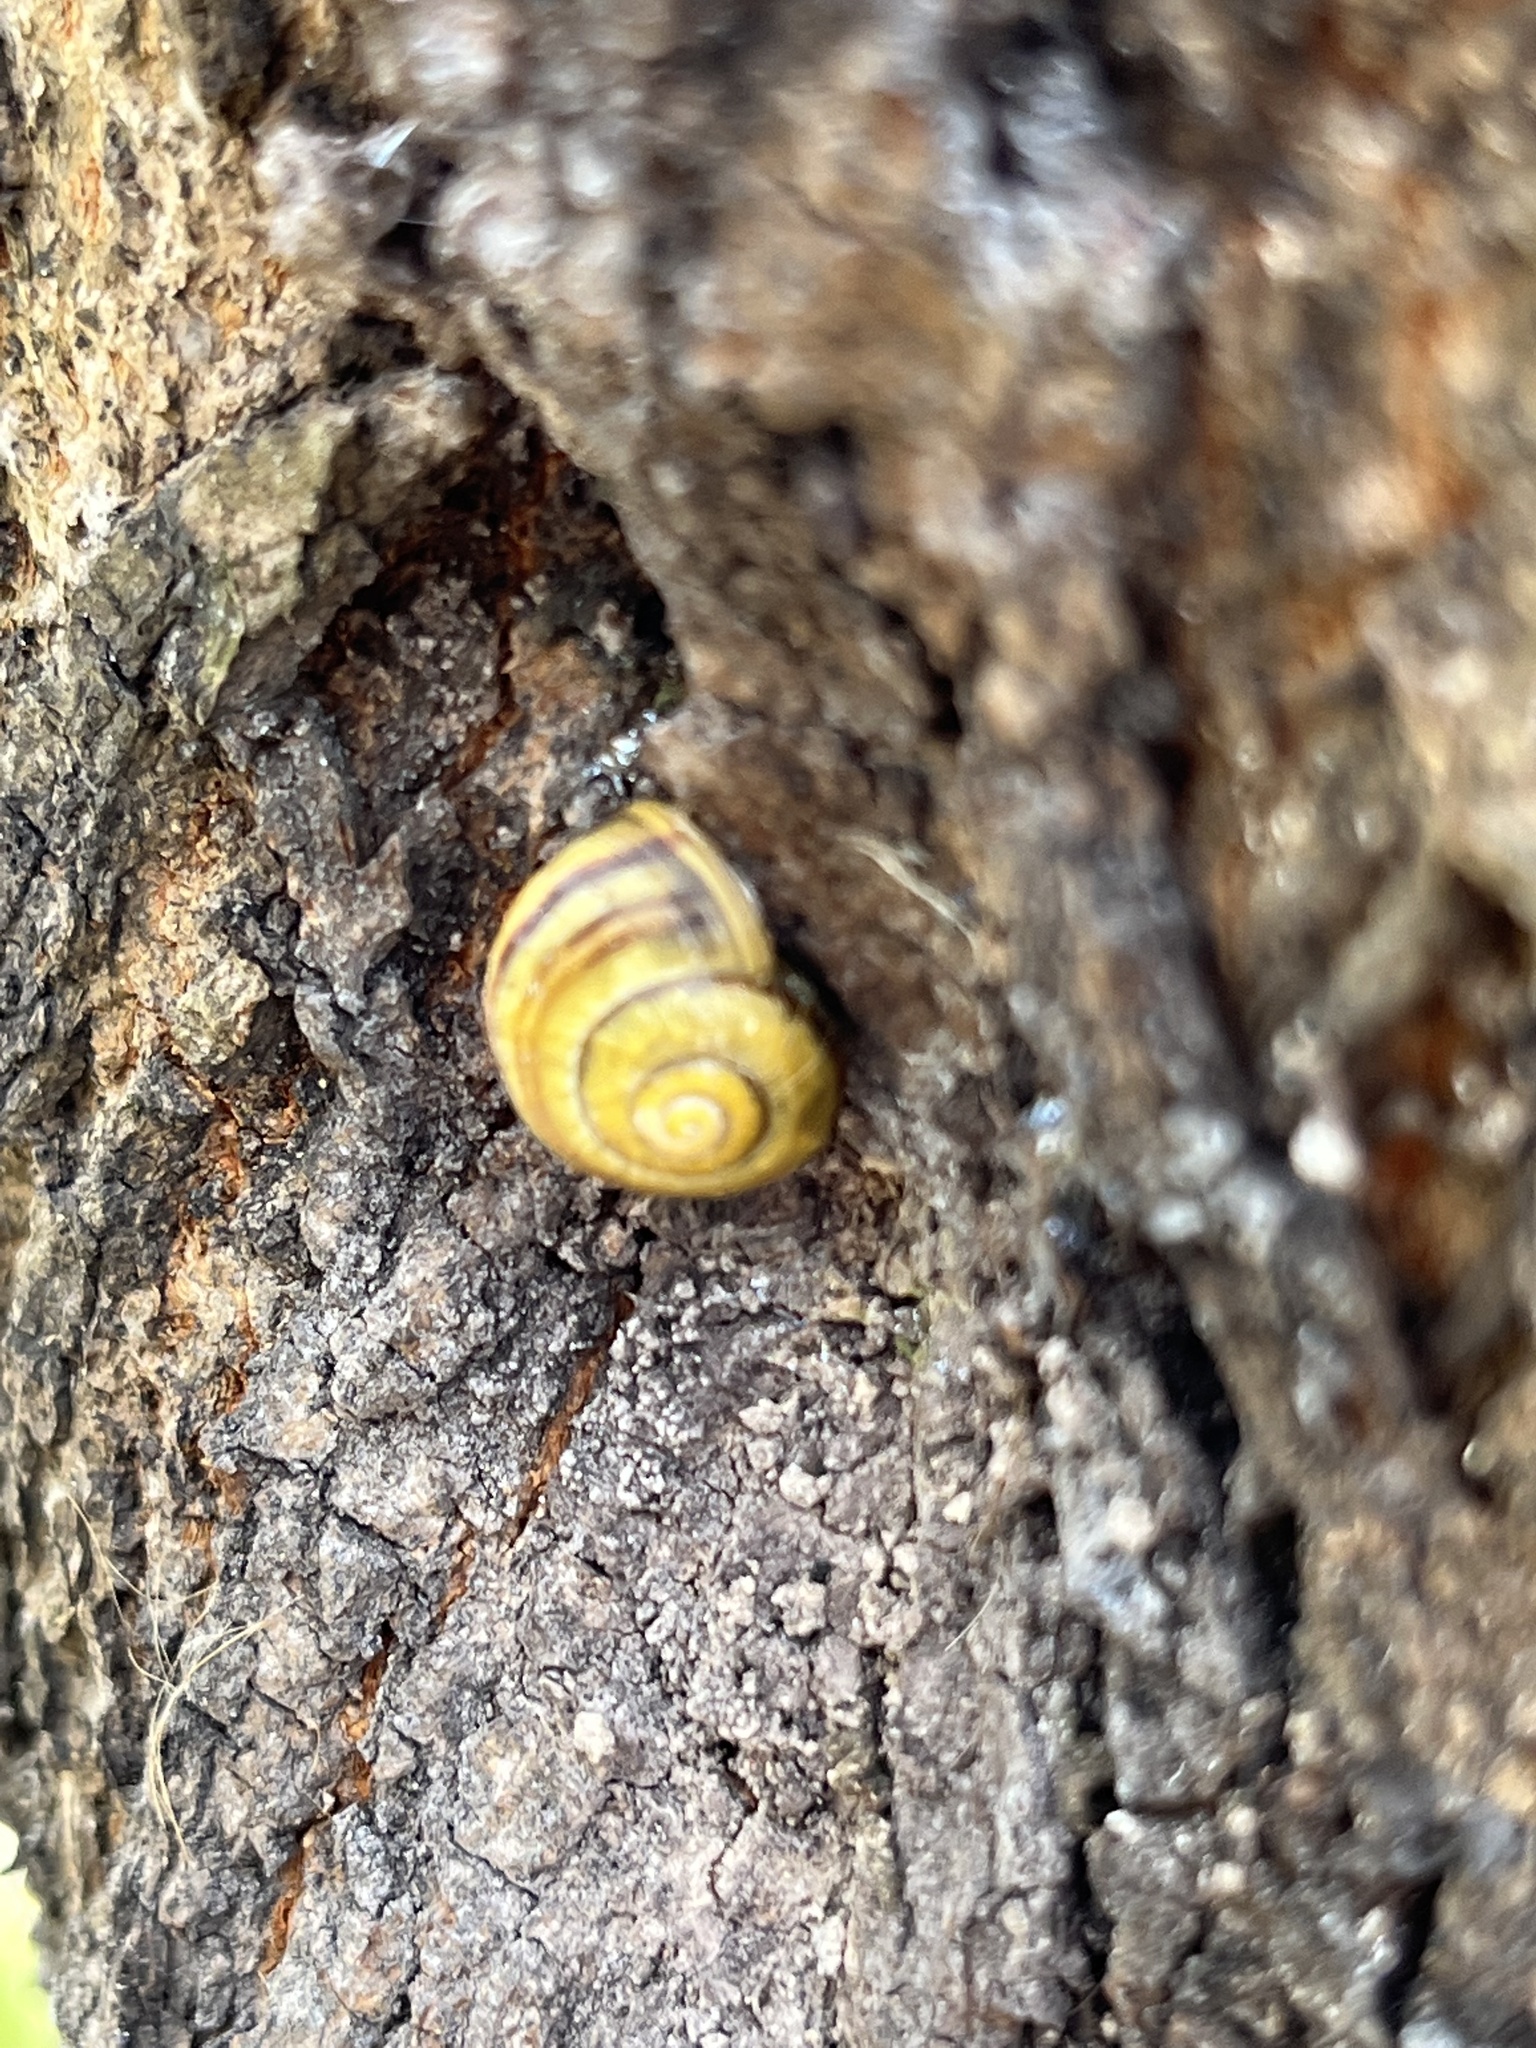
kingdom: Animalia
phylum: Mollusca
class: Gastropoda
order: Stylommatophora
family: Helicidae
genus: Cepaea
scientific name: Cepaea
